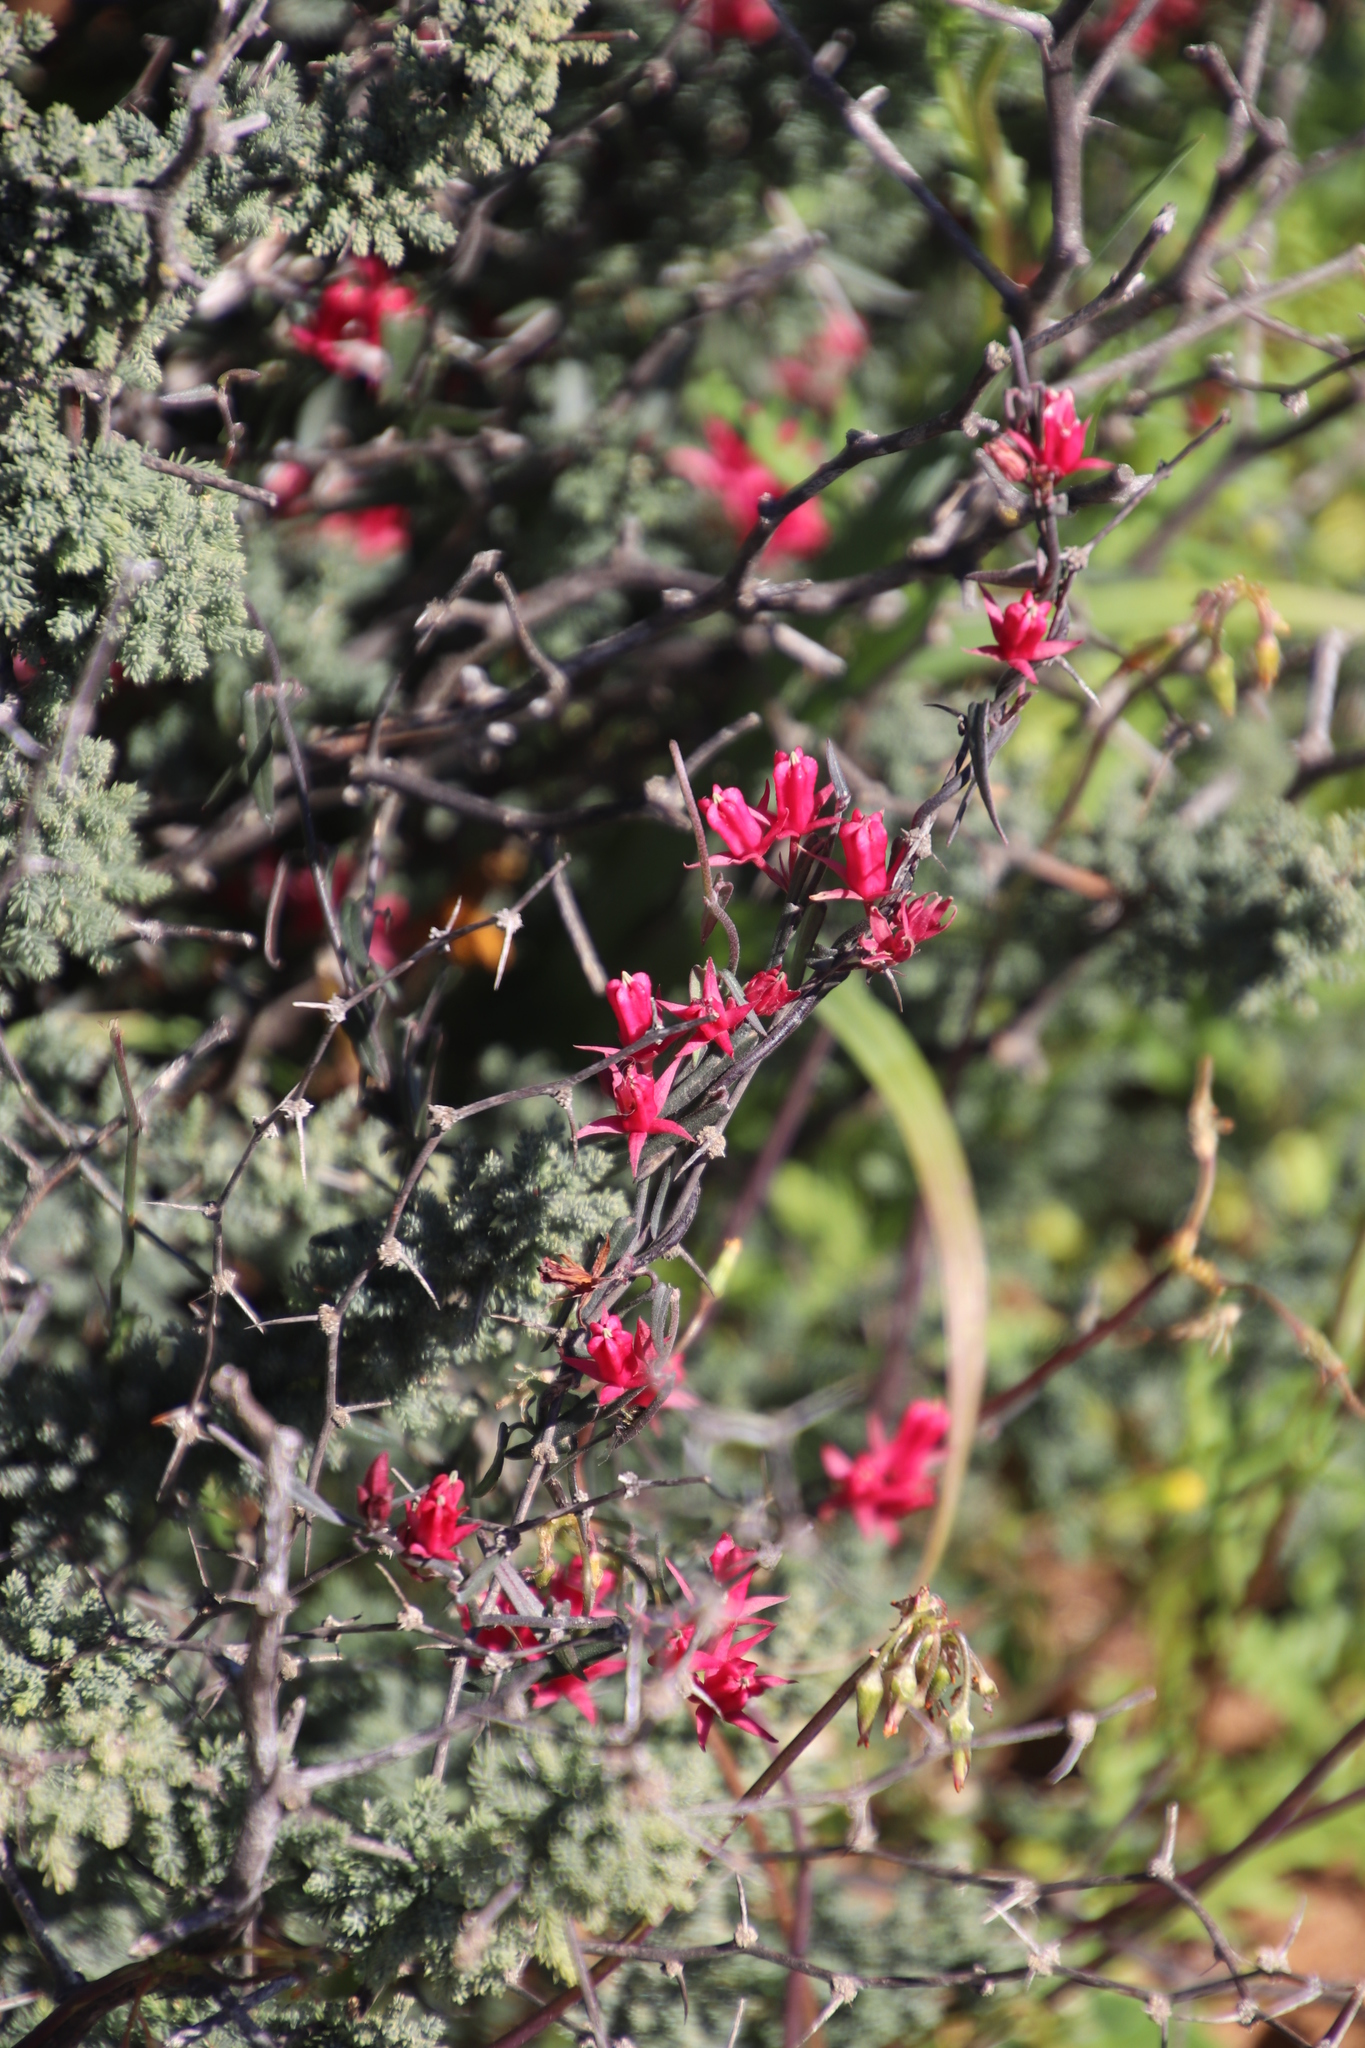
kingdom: Plantae
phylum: Tracheophyta
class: Magnoliopsida
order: Gentianales
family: Apocynaceae
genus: Microloma
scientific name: Microloma sagittatum
